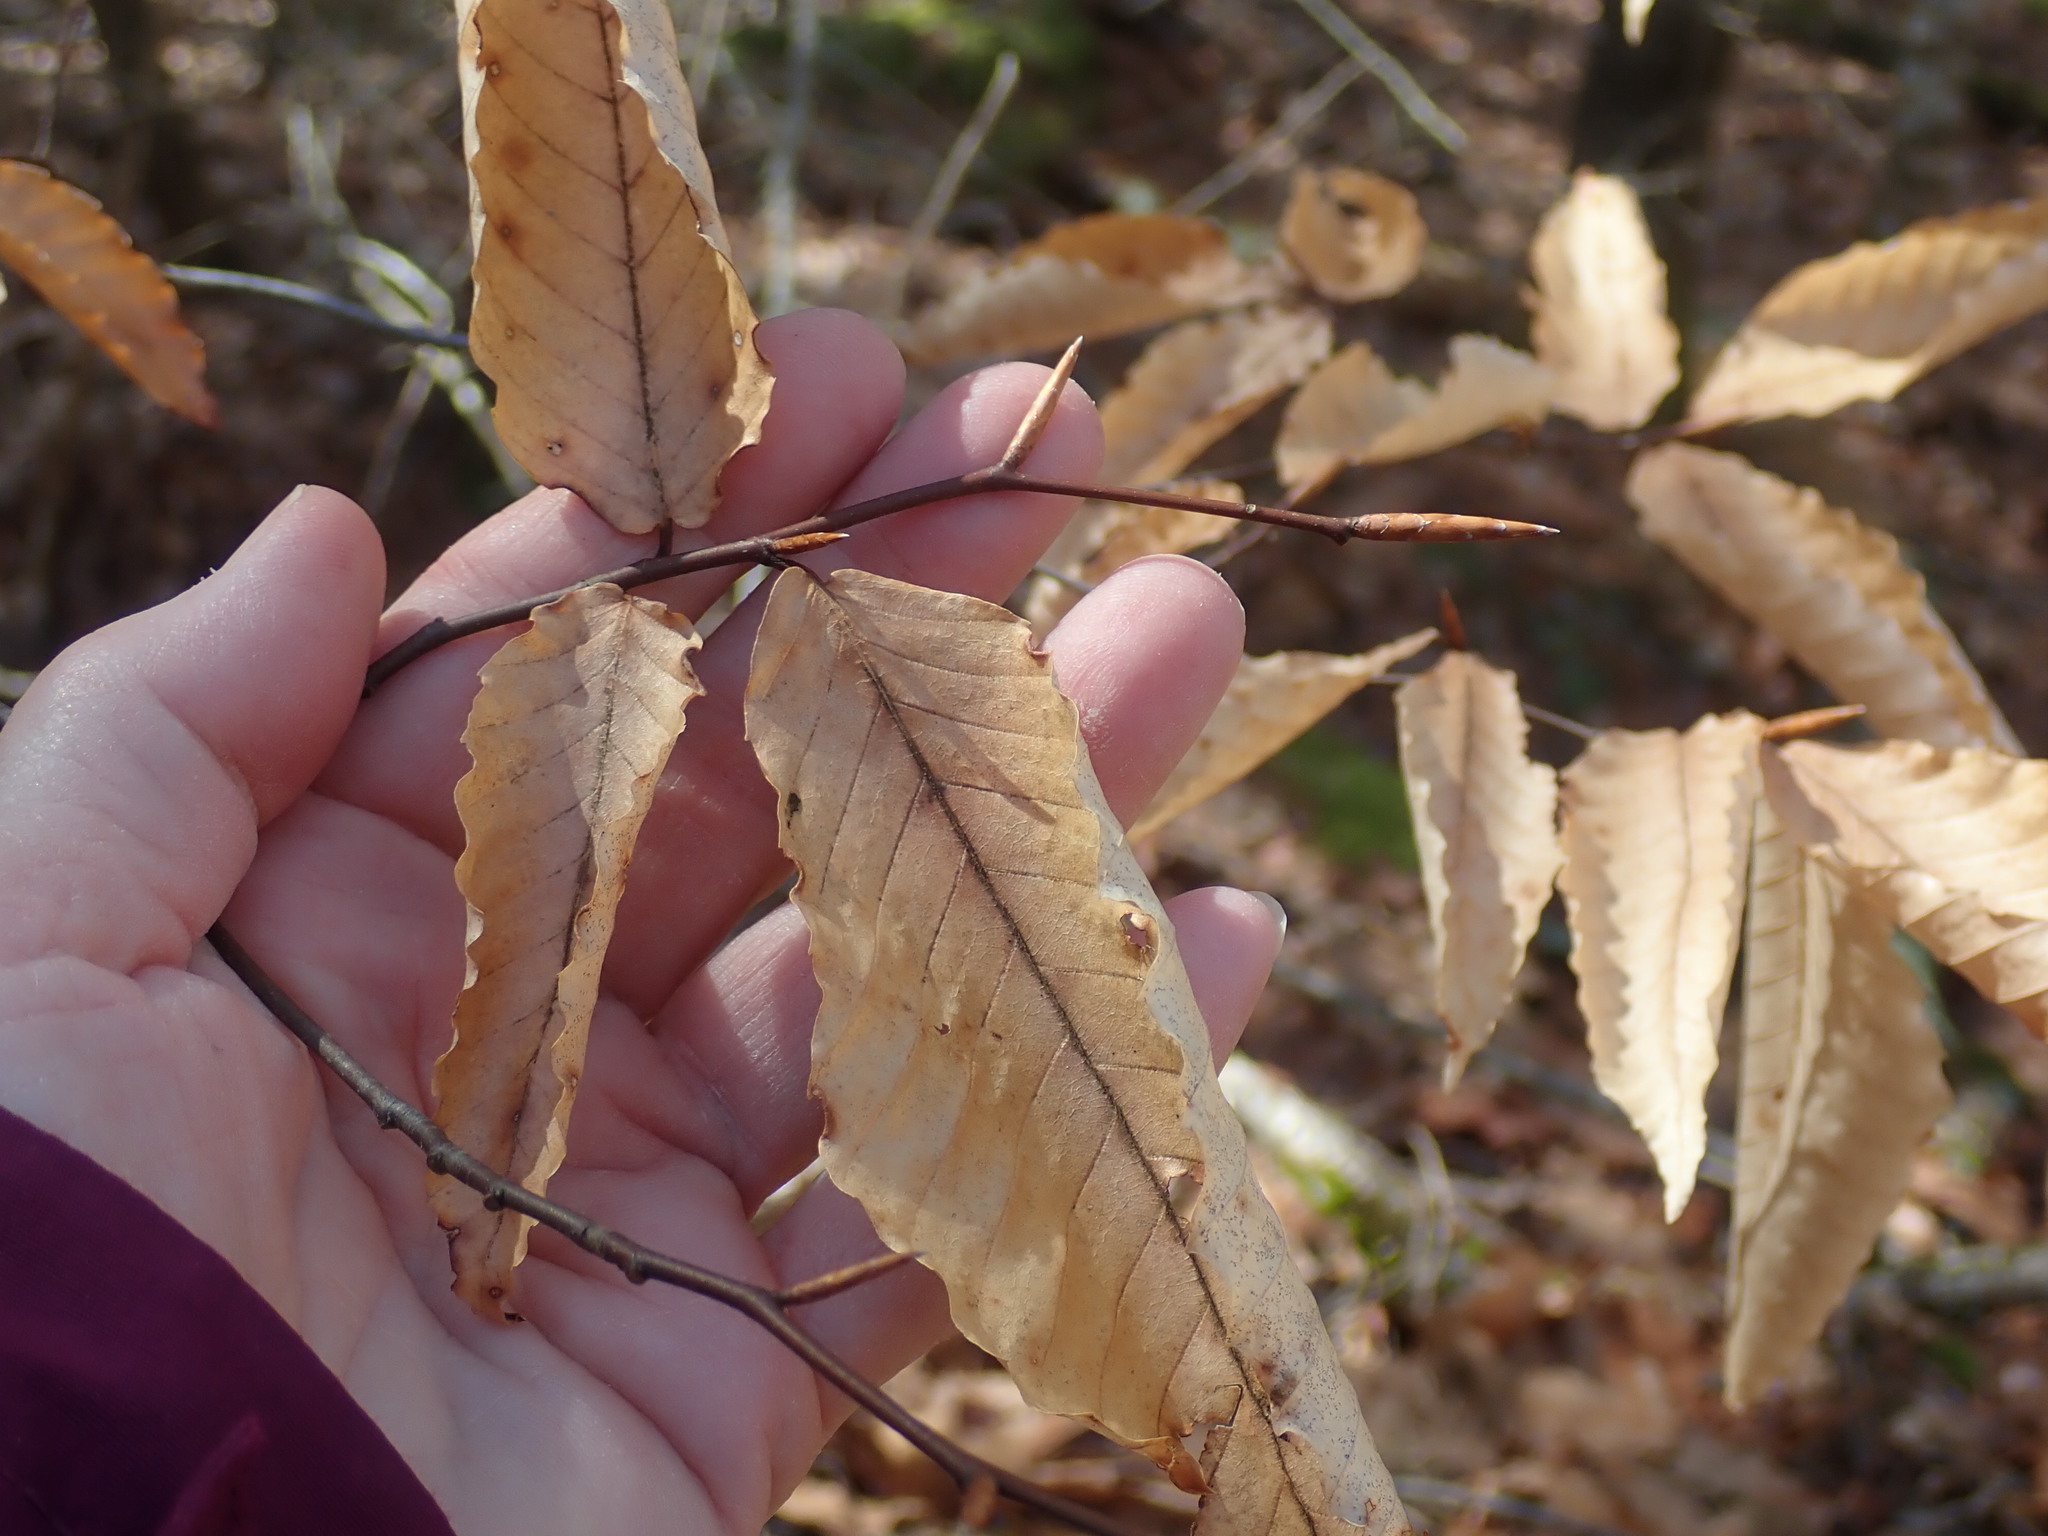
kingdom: Plantae
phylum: Tracheophyta
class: Magnoliopsida
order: Fagales
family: Fagaceae
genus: Fagus
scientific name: Fagus grandifolia
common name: American beech
